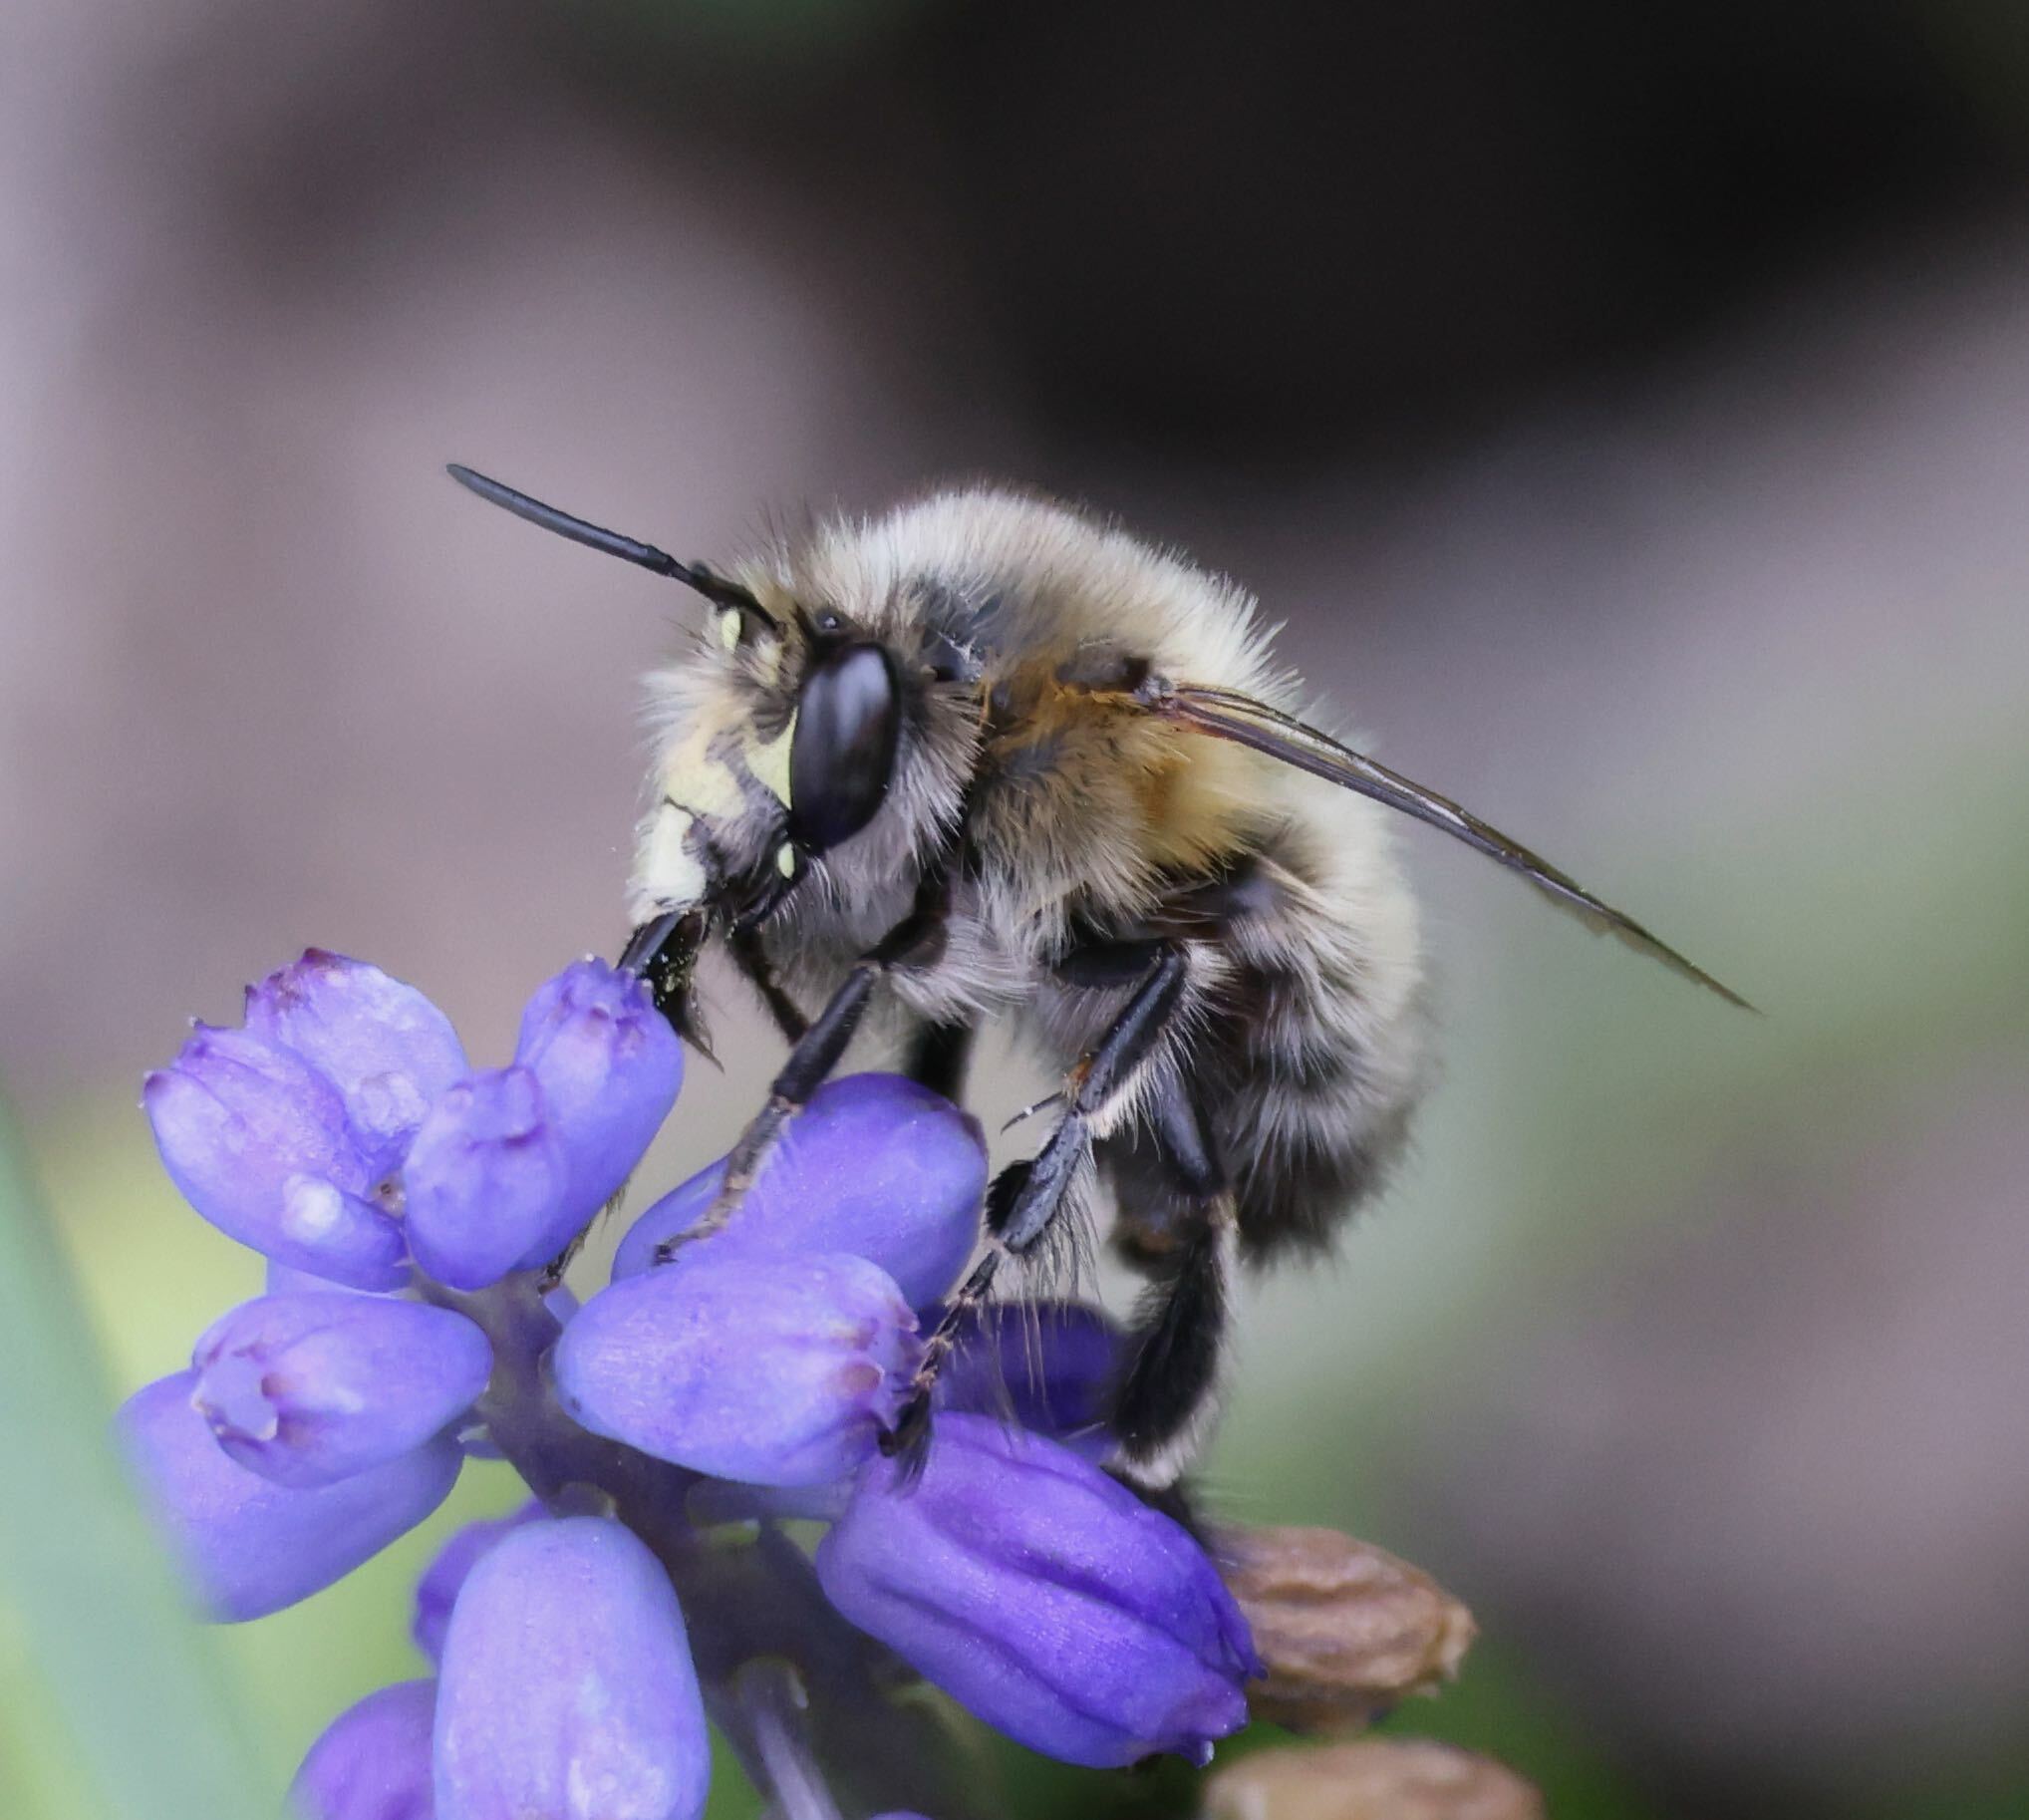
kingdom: Animalia
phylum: Arthropoda
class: Insecta
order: Hymenoptera
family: Apidae
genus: Anthophora
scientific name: Anthophora plumipes
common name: Hairy-footed flower bee
